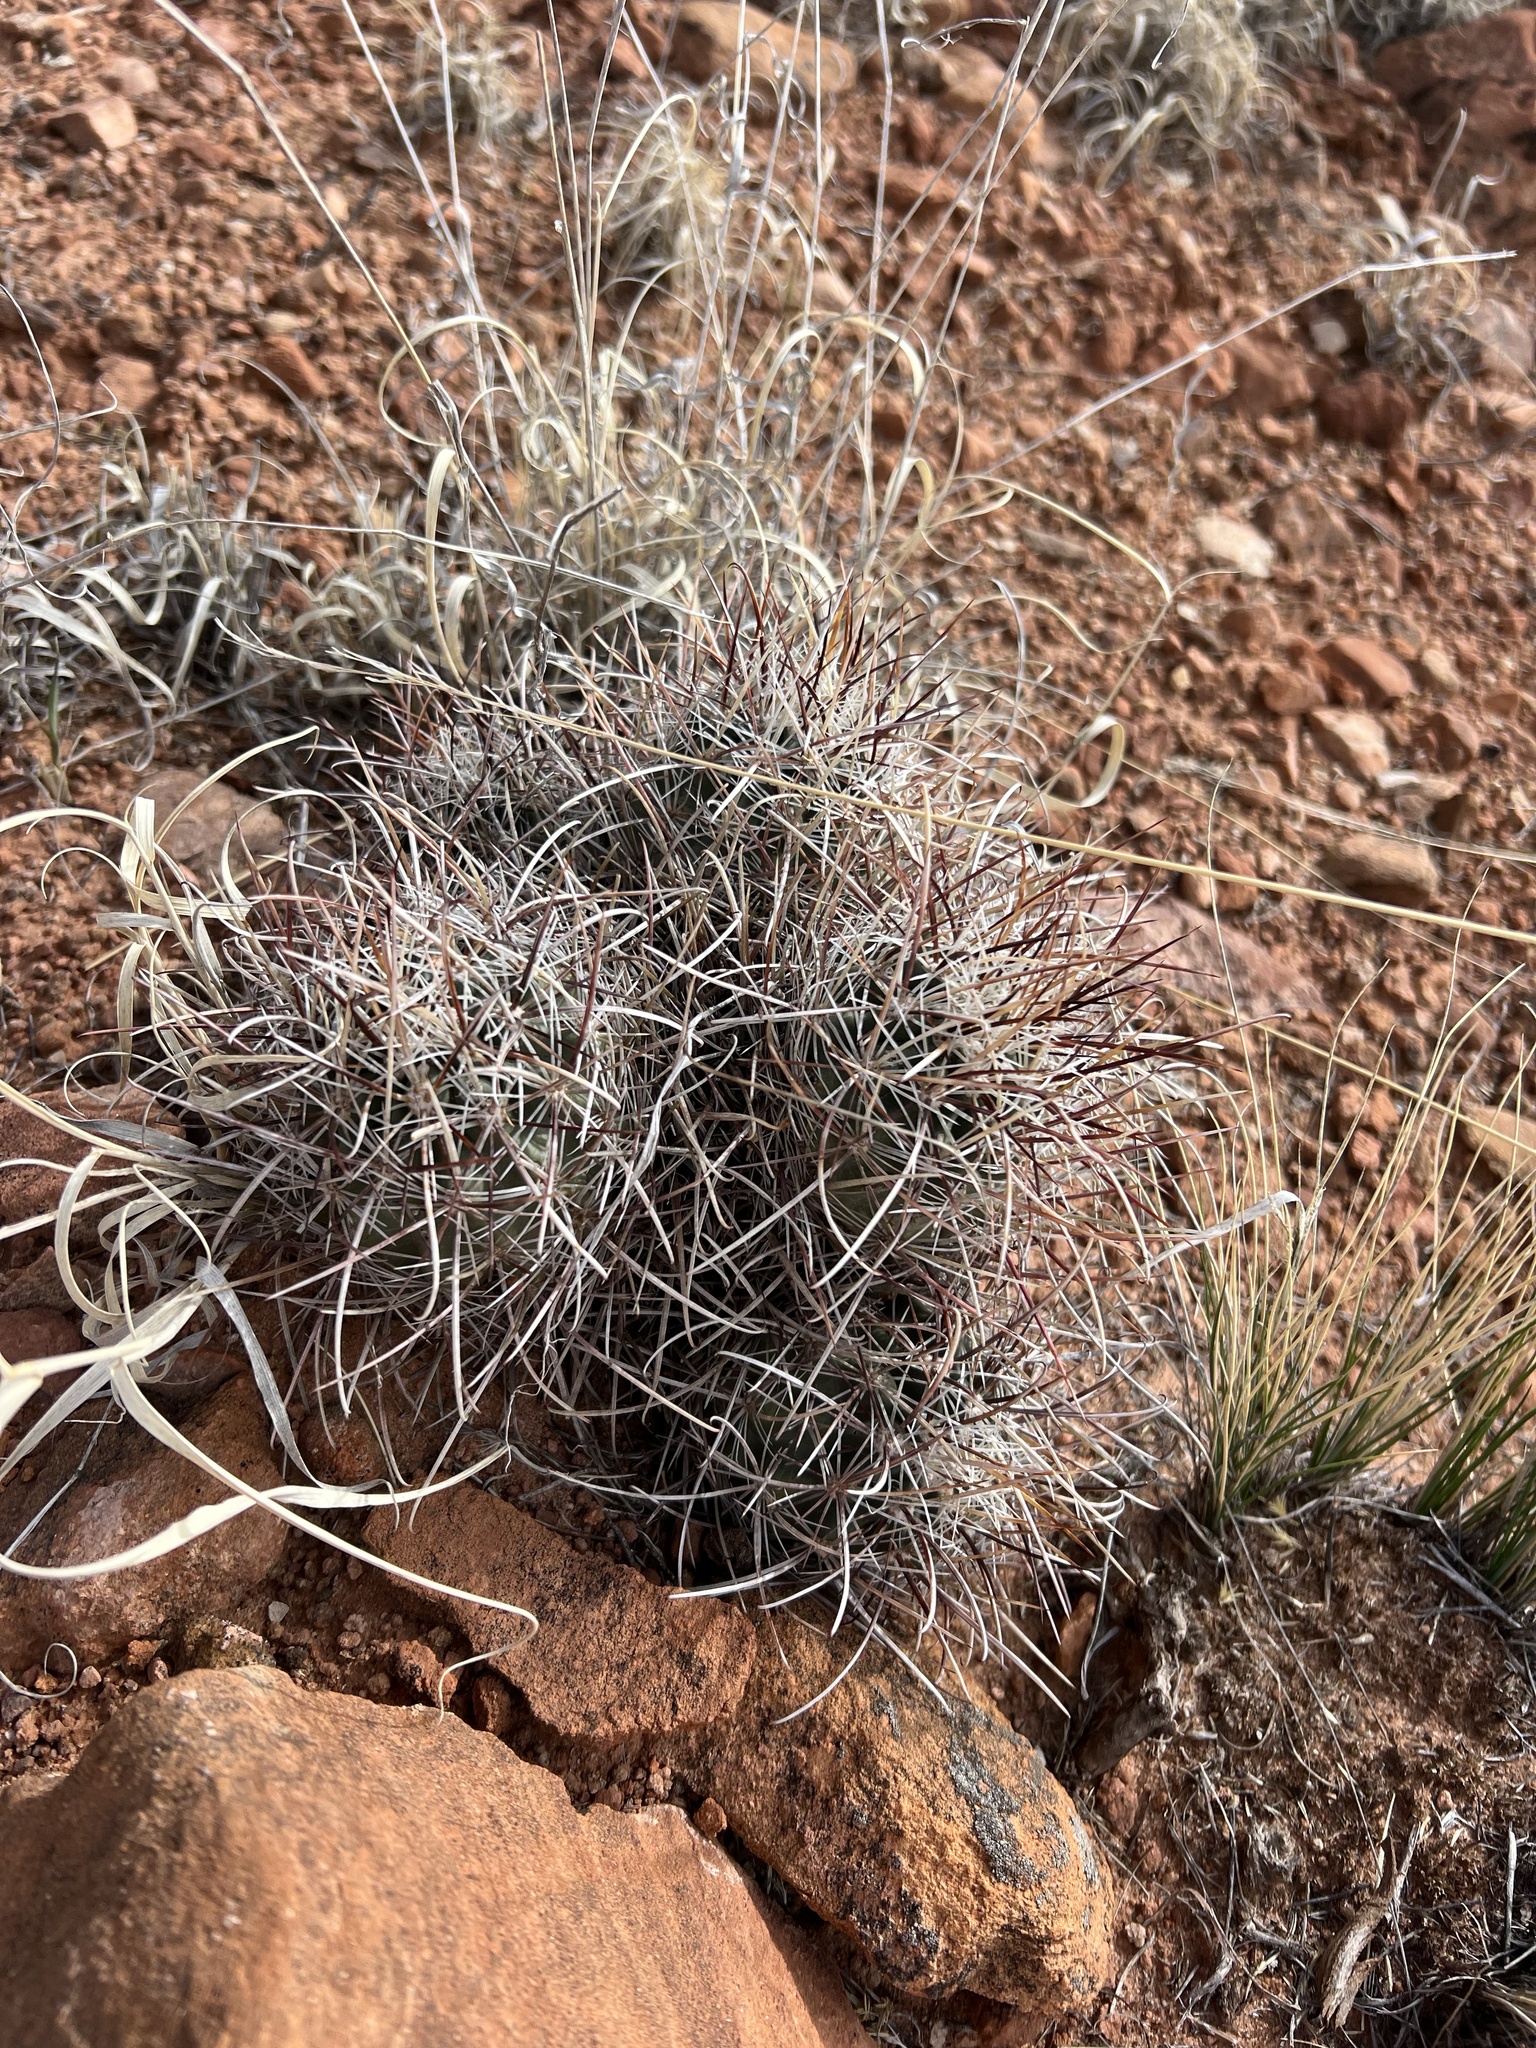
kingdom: Plantae
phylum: Tracheophyta
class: Magnoliopsida
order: Caryophyllales
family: Cactaceae
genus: Sclerocactus
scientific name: Sclerocactus parviflorus
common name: Small-flower fishhook cactus
